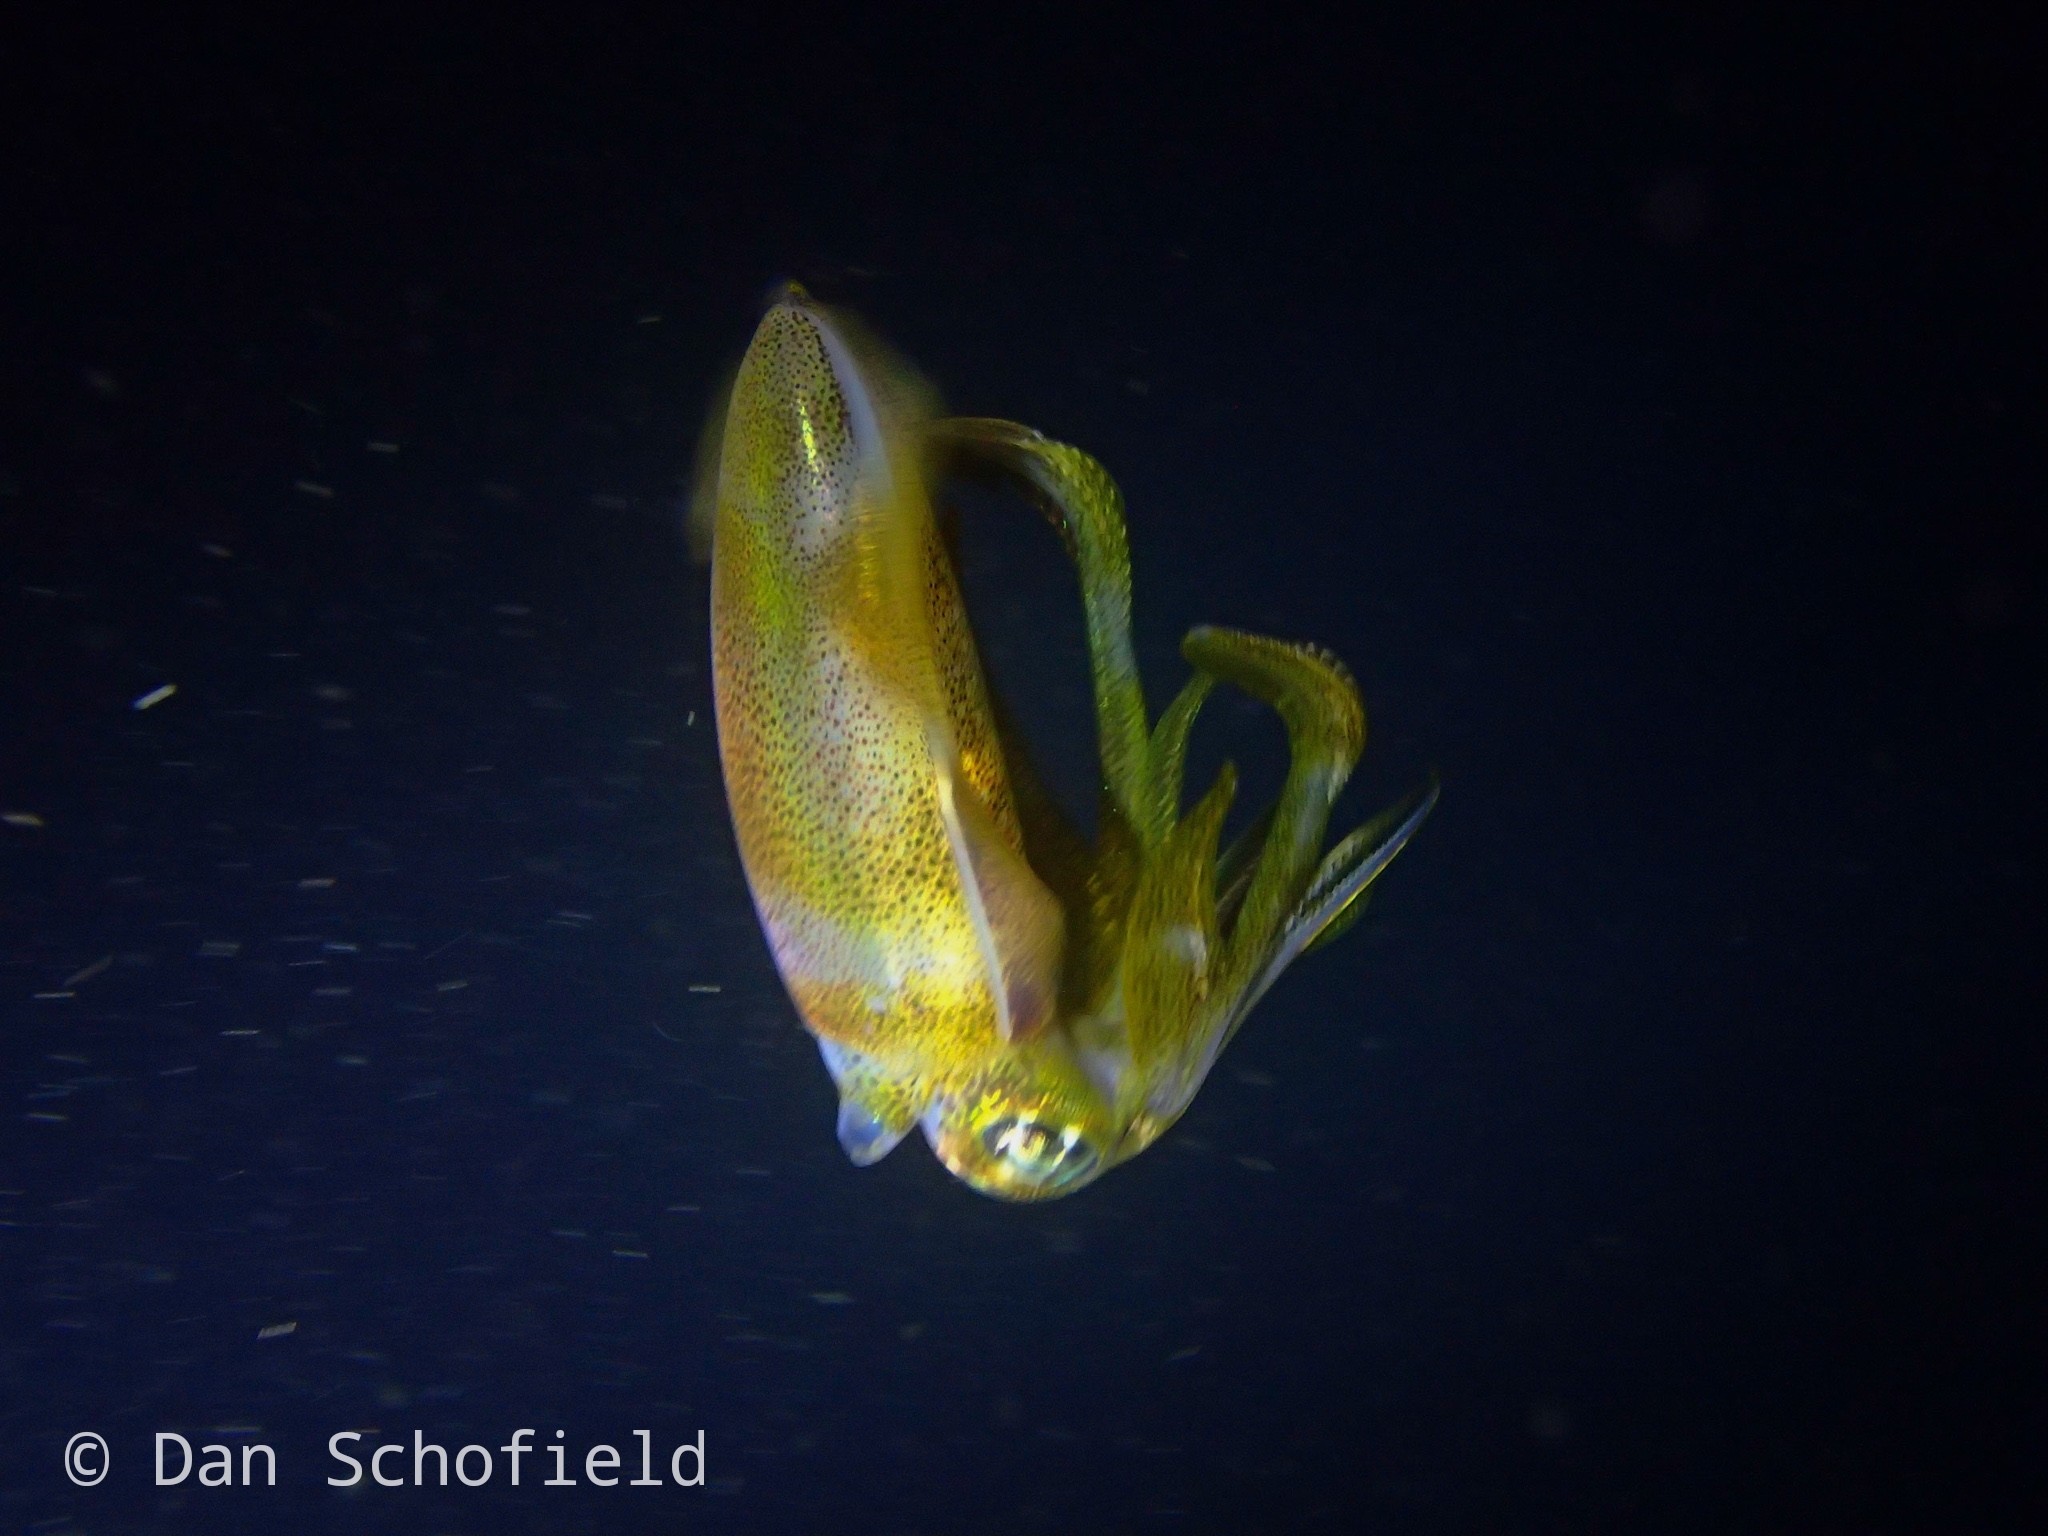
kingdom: Animalia
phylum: Mollusca
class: Cephalopoda
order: Myopsida
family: Loliginidae
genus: Sepioteuthis
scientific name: Sepioteuthis lessoniana
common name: Bigfin reef squid
